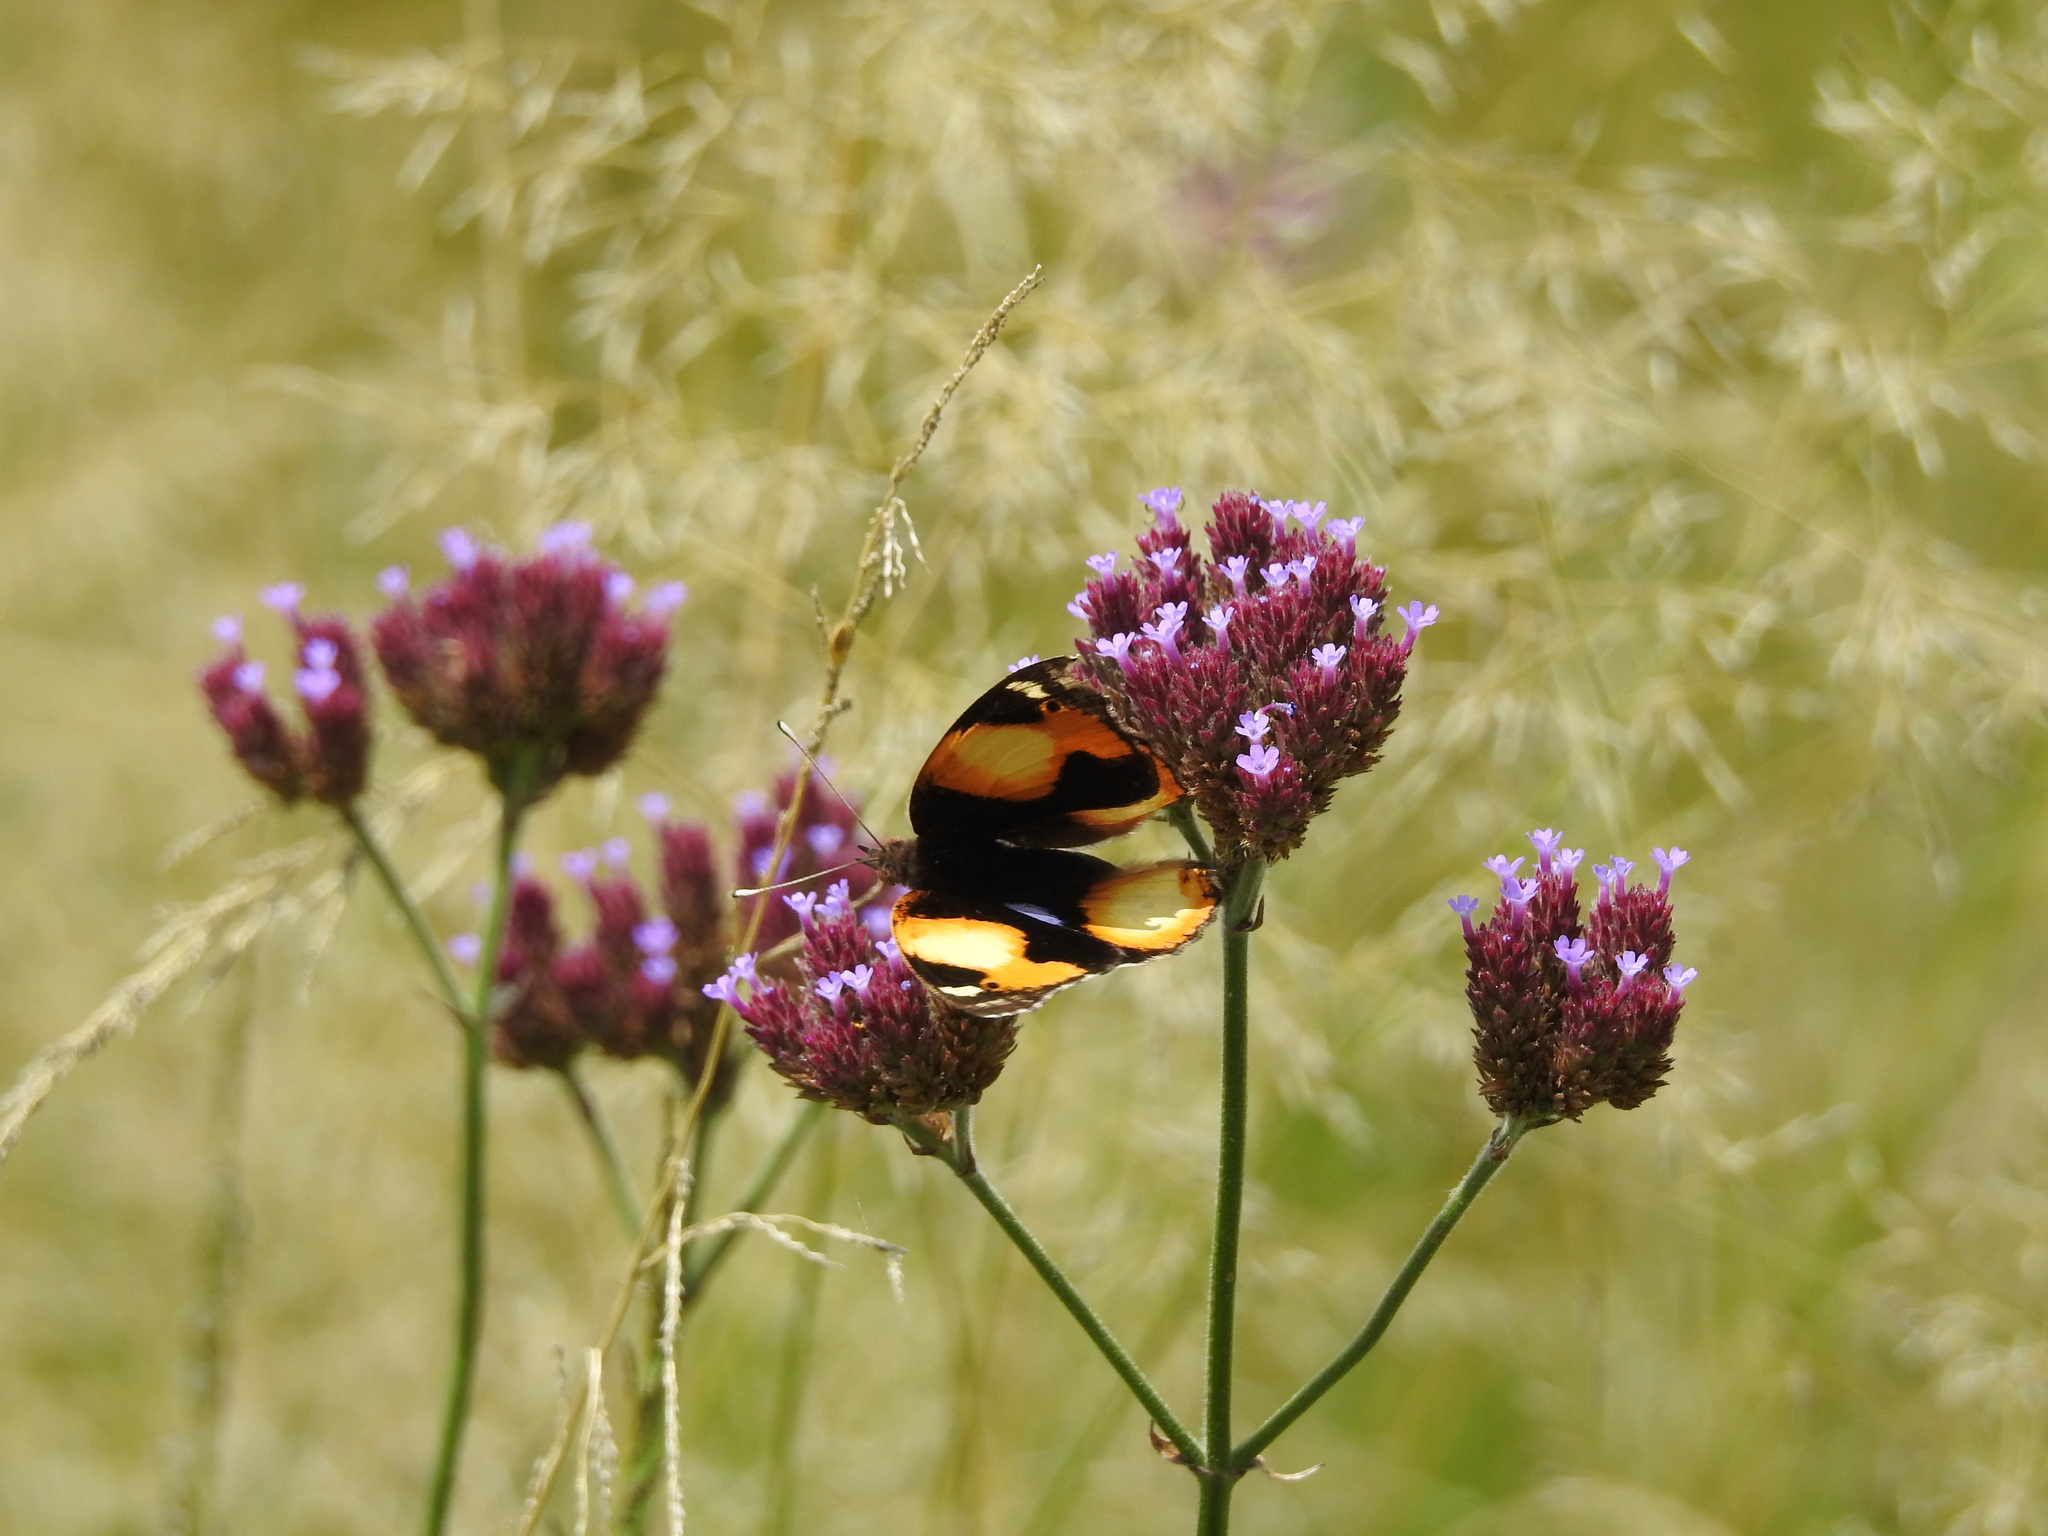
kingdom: Animalia
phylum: Arthropoda
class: Insecta
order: Lepidoptera
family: Nymphalidae
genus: Junonia
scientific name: Junonia hierta
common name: Yellow pansy
